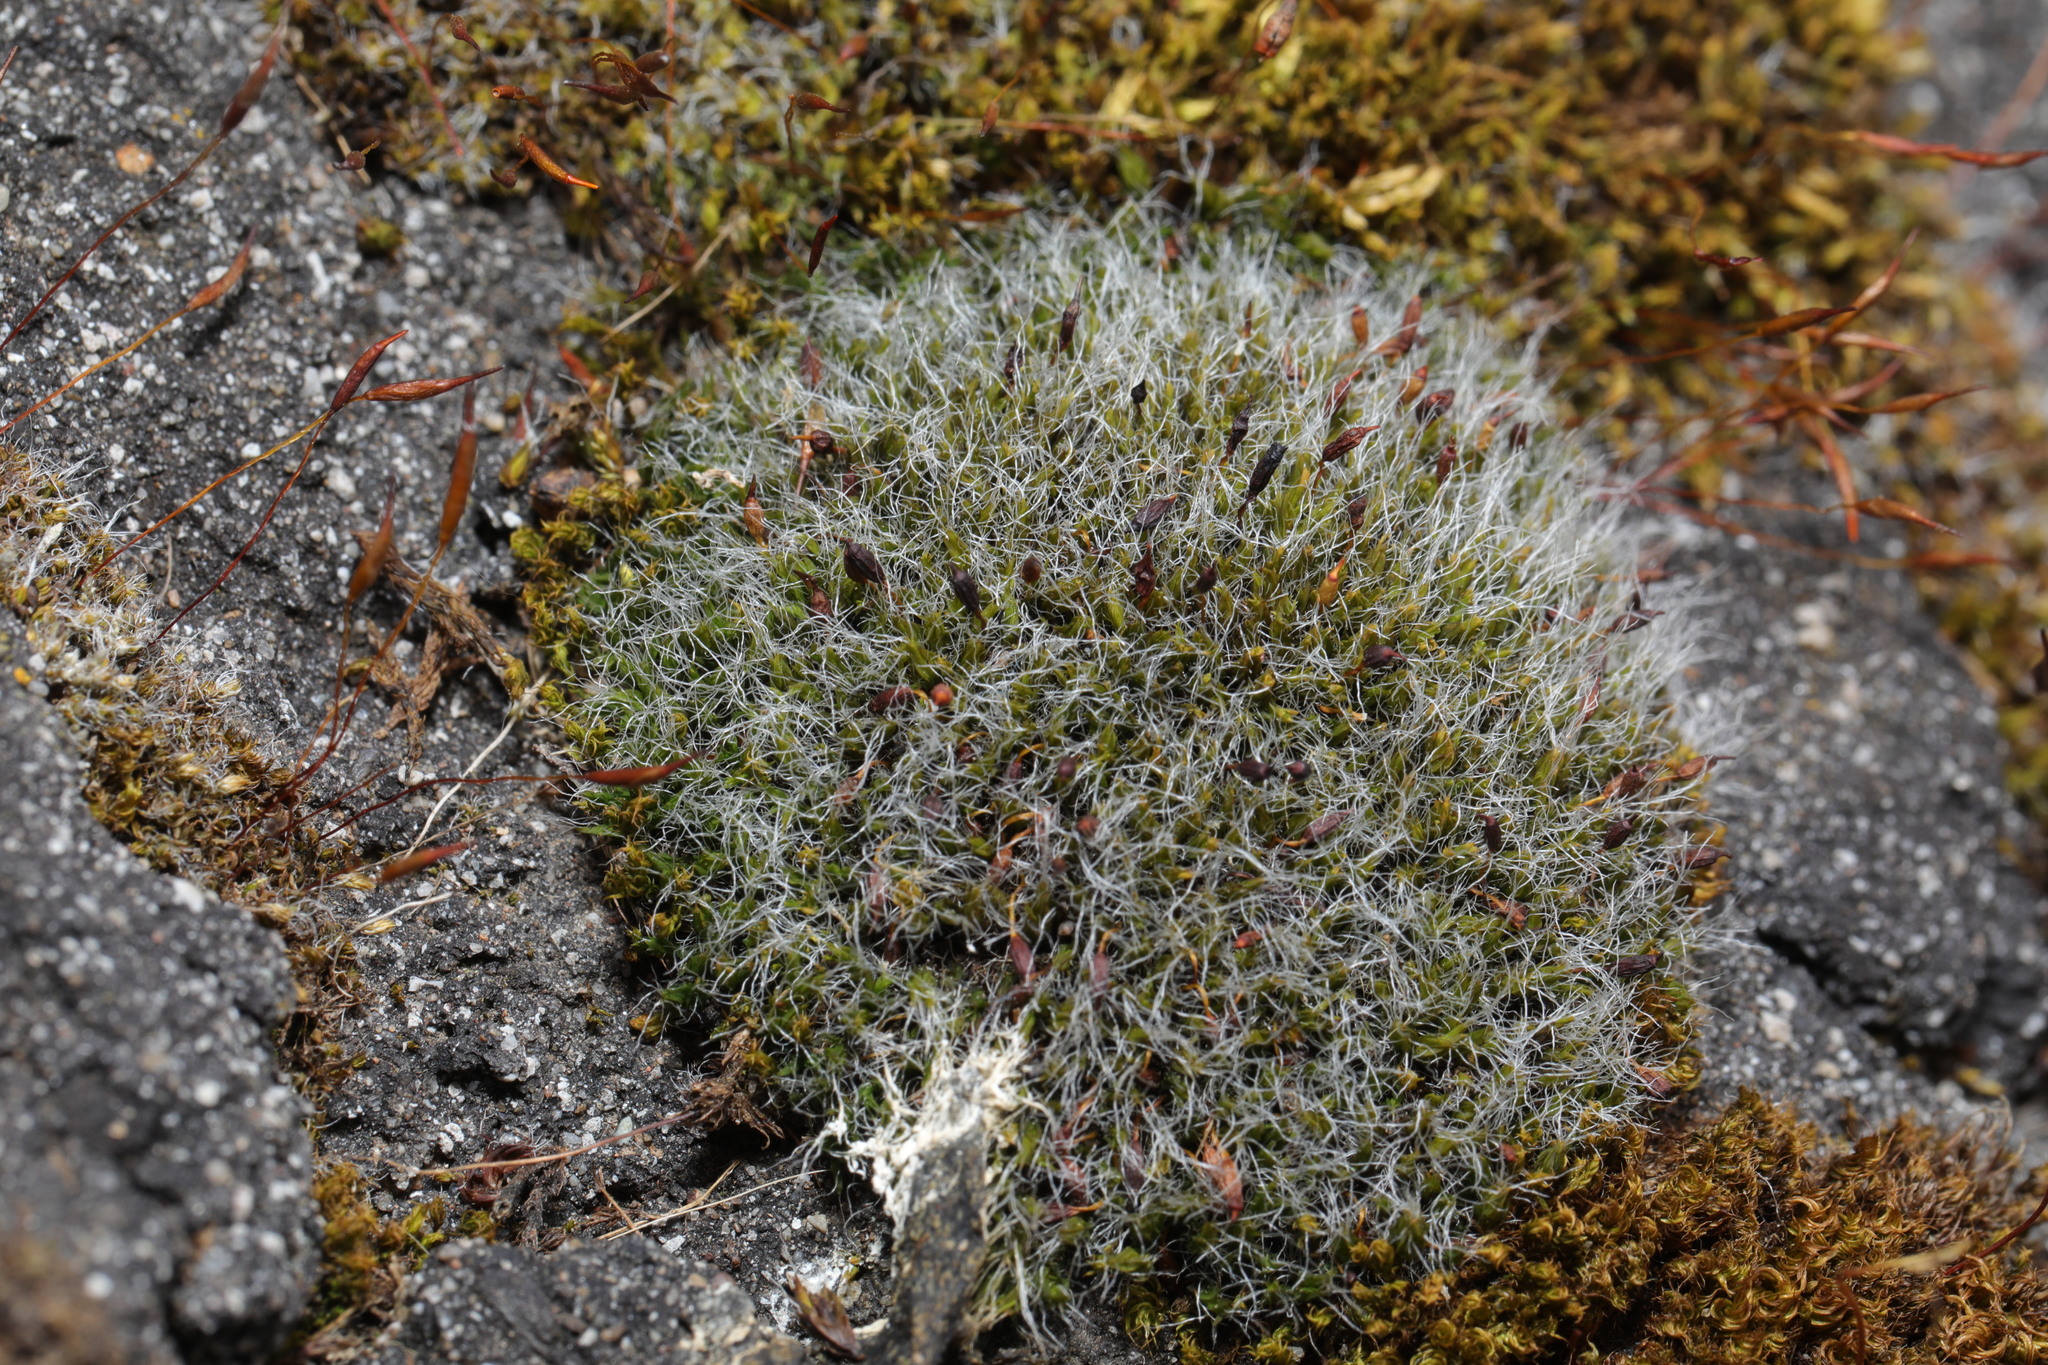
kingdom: Plantae
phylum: Bryophyta
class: Bryopsida
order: Grimmiales
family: Grimmiaceae
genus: Grimmia
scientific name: Grimmia pulvinata
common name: Grey-cushioned grimmia
